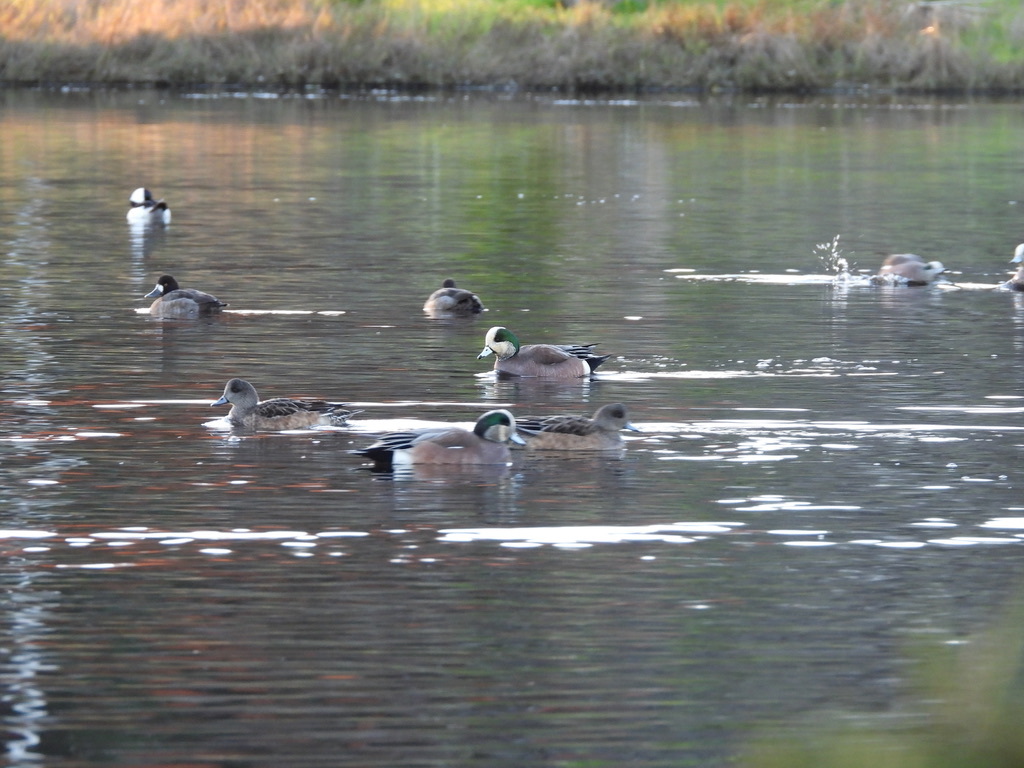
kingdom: Animalia
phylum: Chordata
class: Aves
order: Anseriformes
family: Anatidae
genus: Mareca
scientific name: Mareca americana
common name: American wigeon
